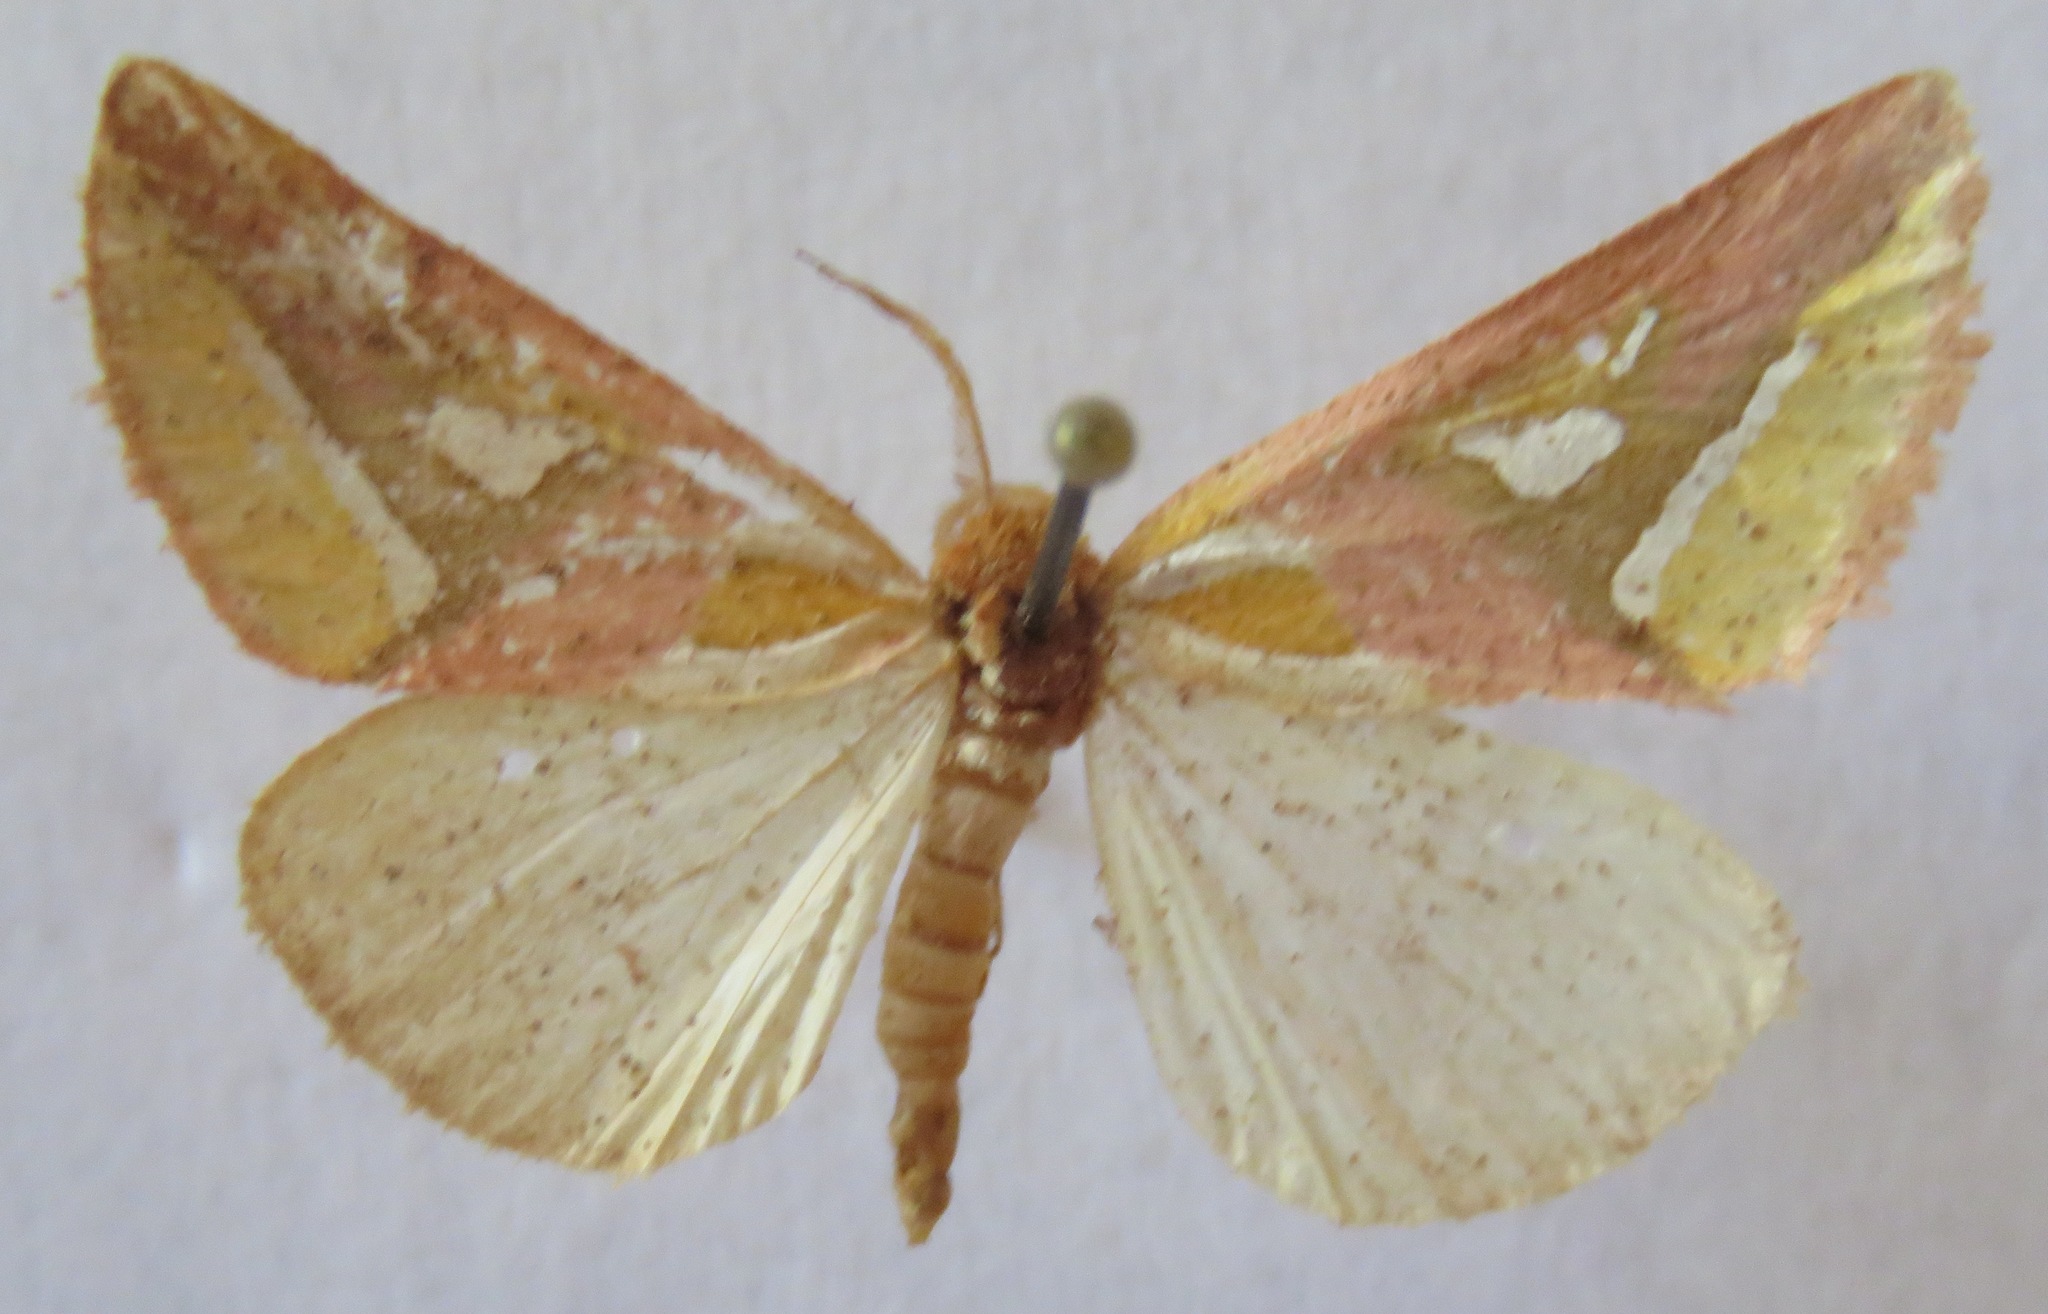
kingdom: Animalia
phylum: Arthropoda
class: Insecta
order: Lepidoptera
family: Cimeliidae
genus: Axia
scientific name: Axia margarita
